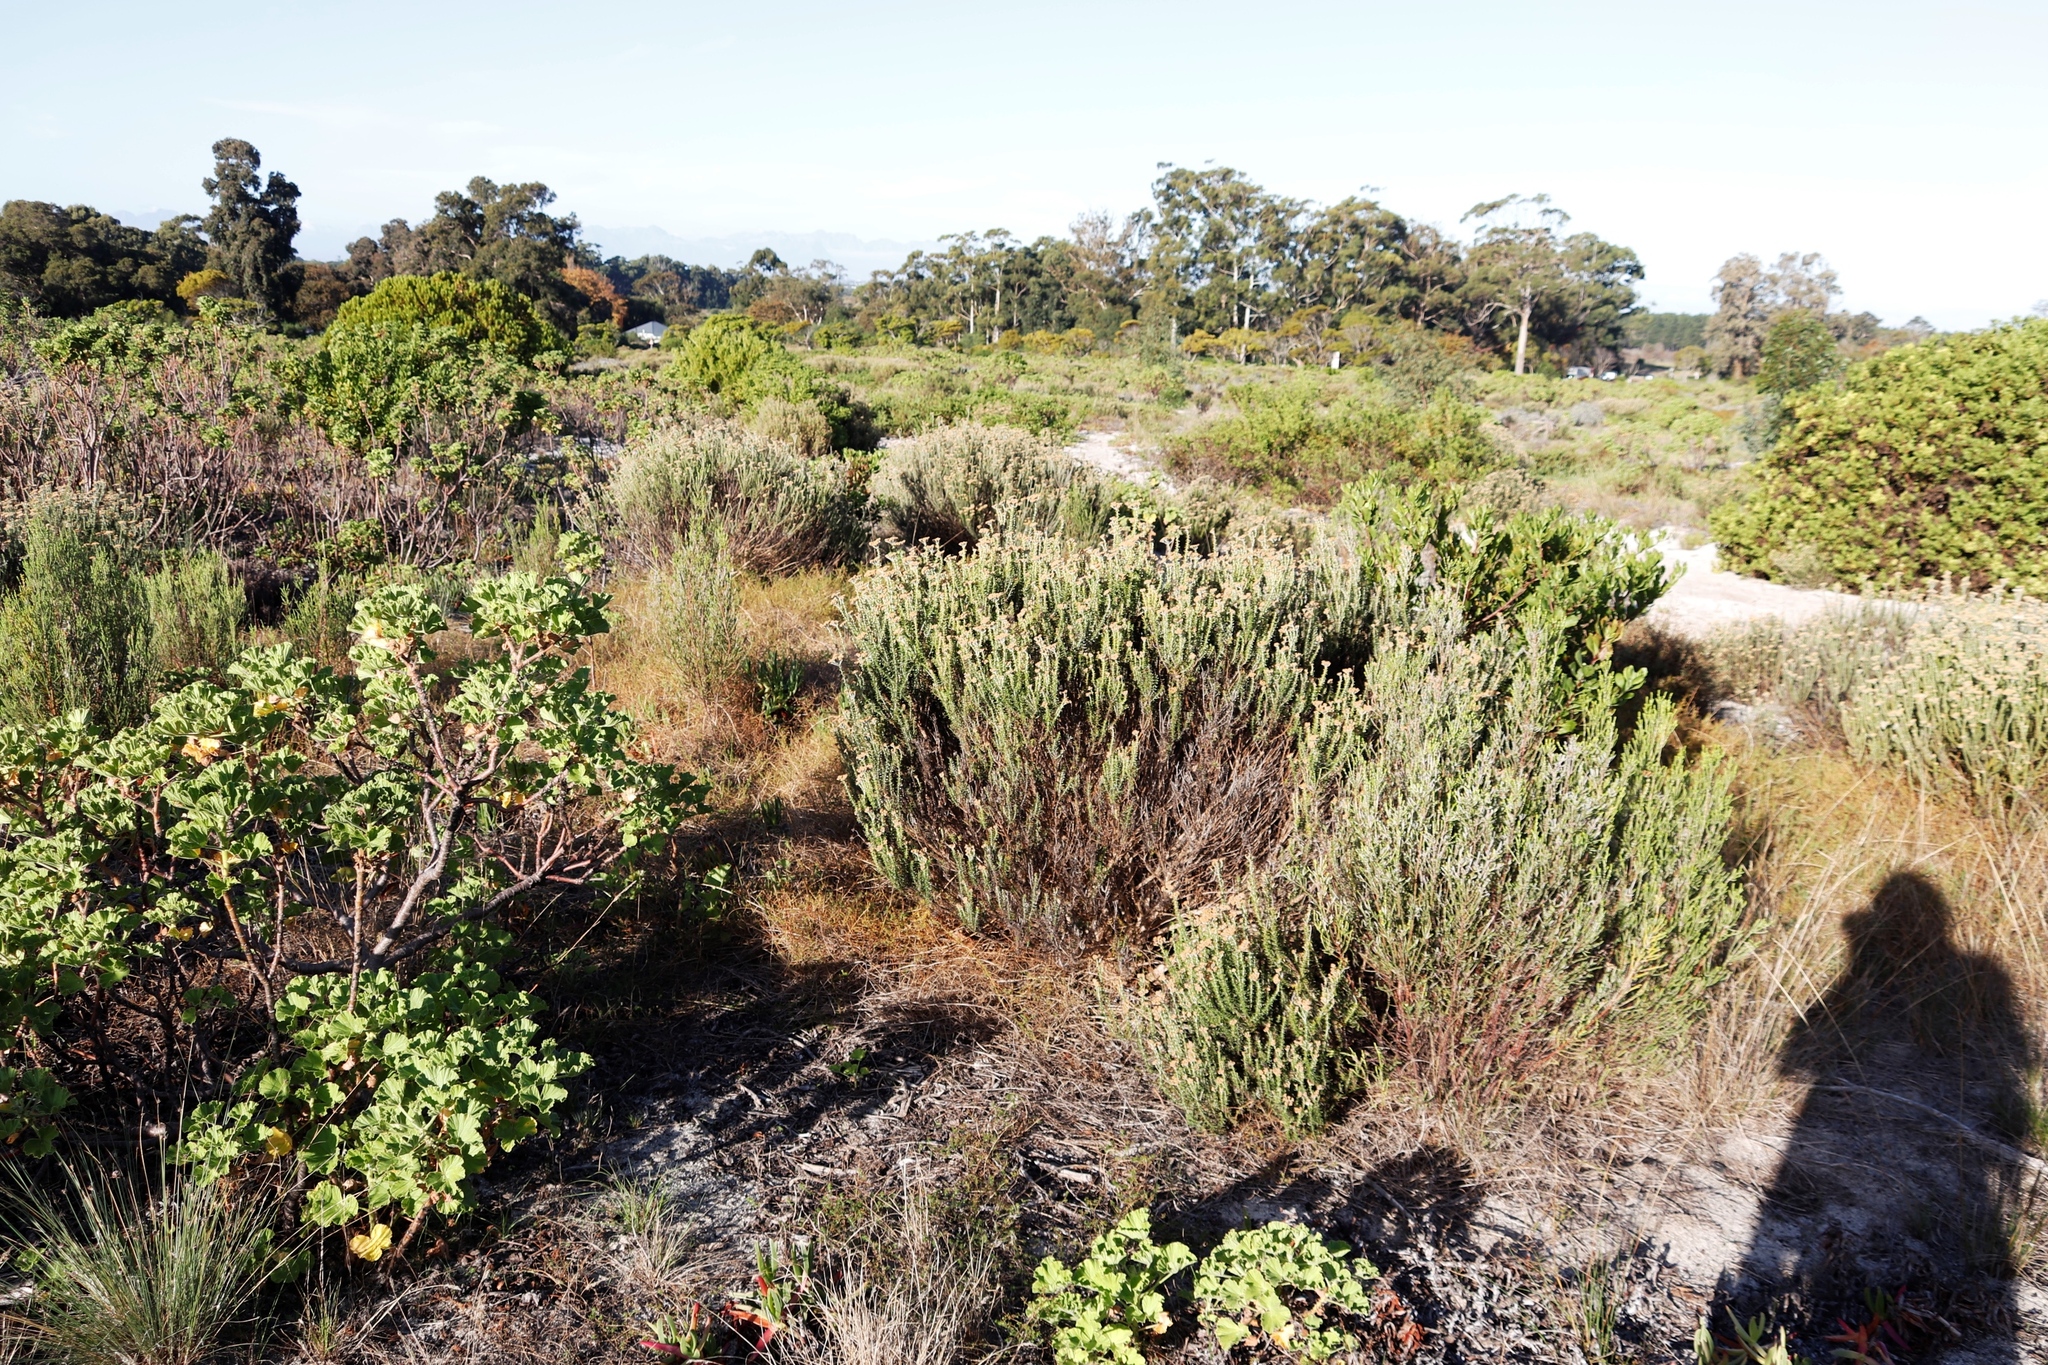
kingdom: Plantae
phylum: Tracheophyta
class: Magnoliopsida
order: Asterales
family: Asteraceae
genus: Metalasia
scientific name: Metalasia densa
